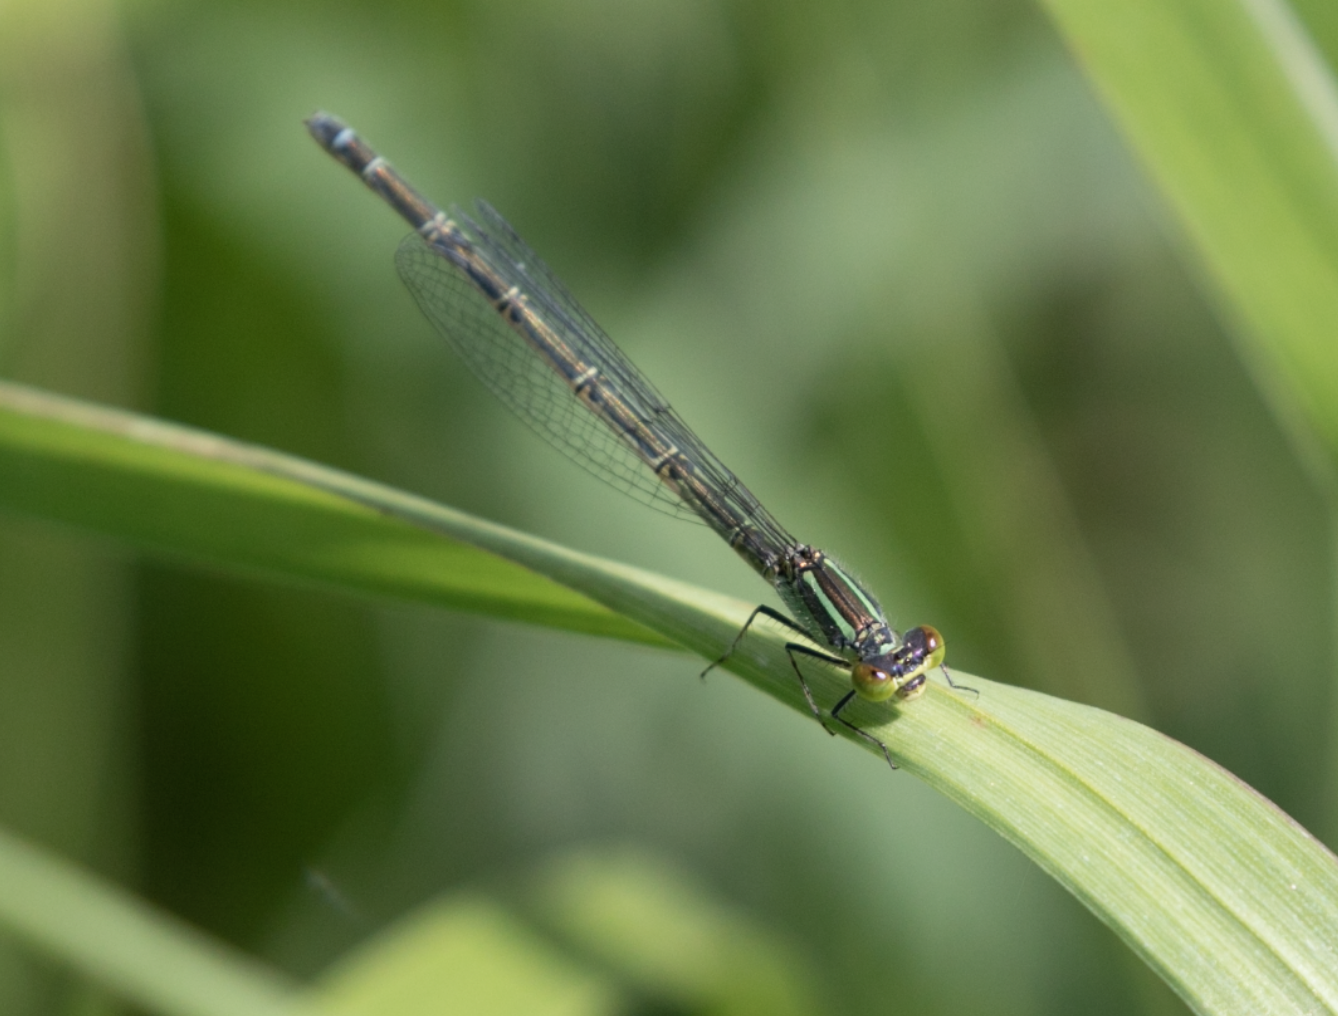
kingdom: Animalia
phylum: Arthropoda
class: Insecta
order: Odonata
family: Coenagrionidae
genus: Erythromma
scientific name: Erythromma viridulum
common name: Small red-eyed damselfly
